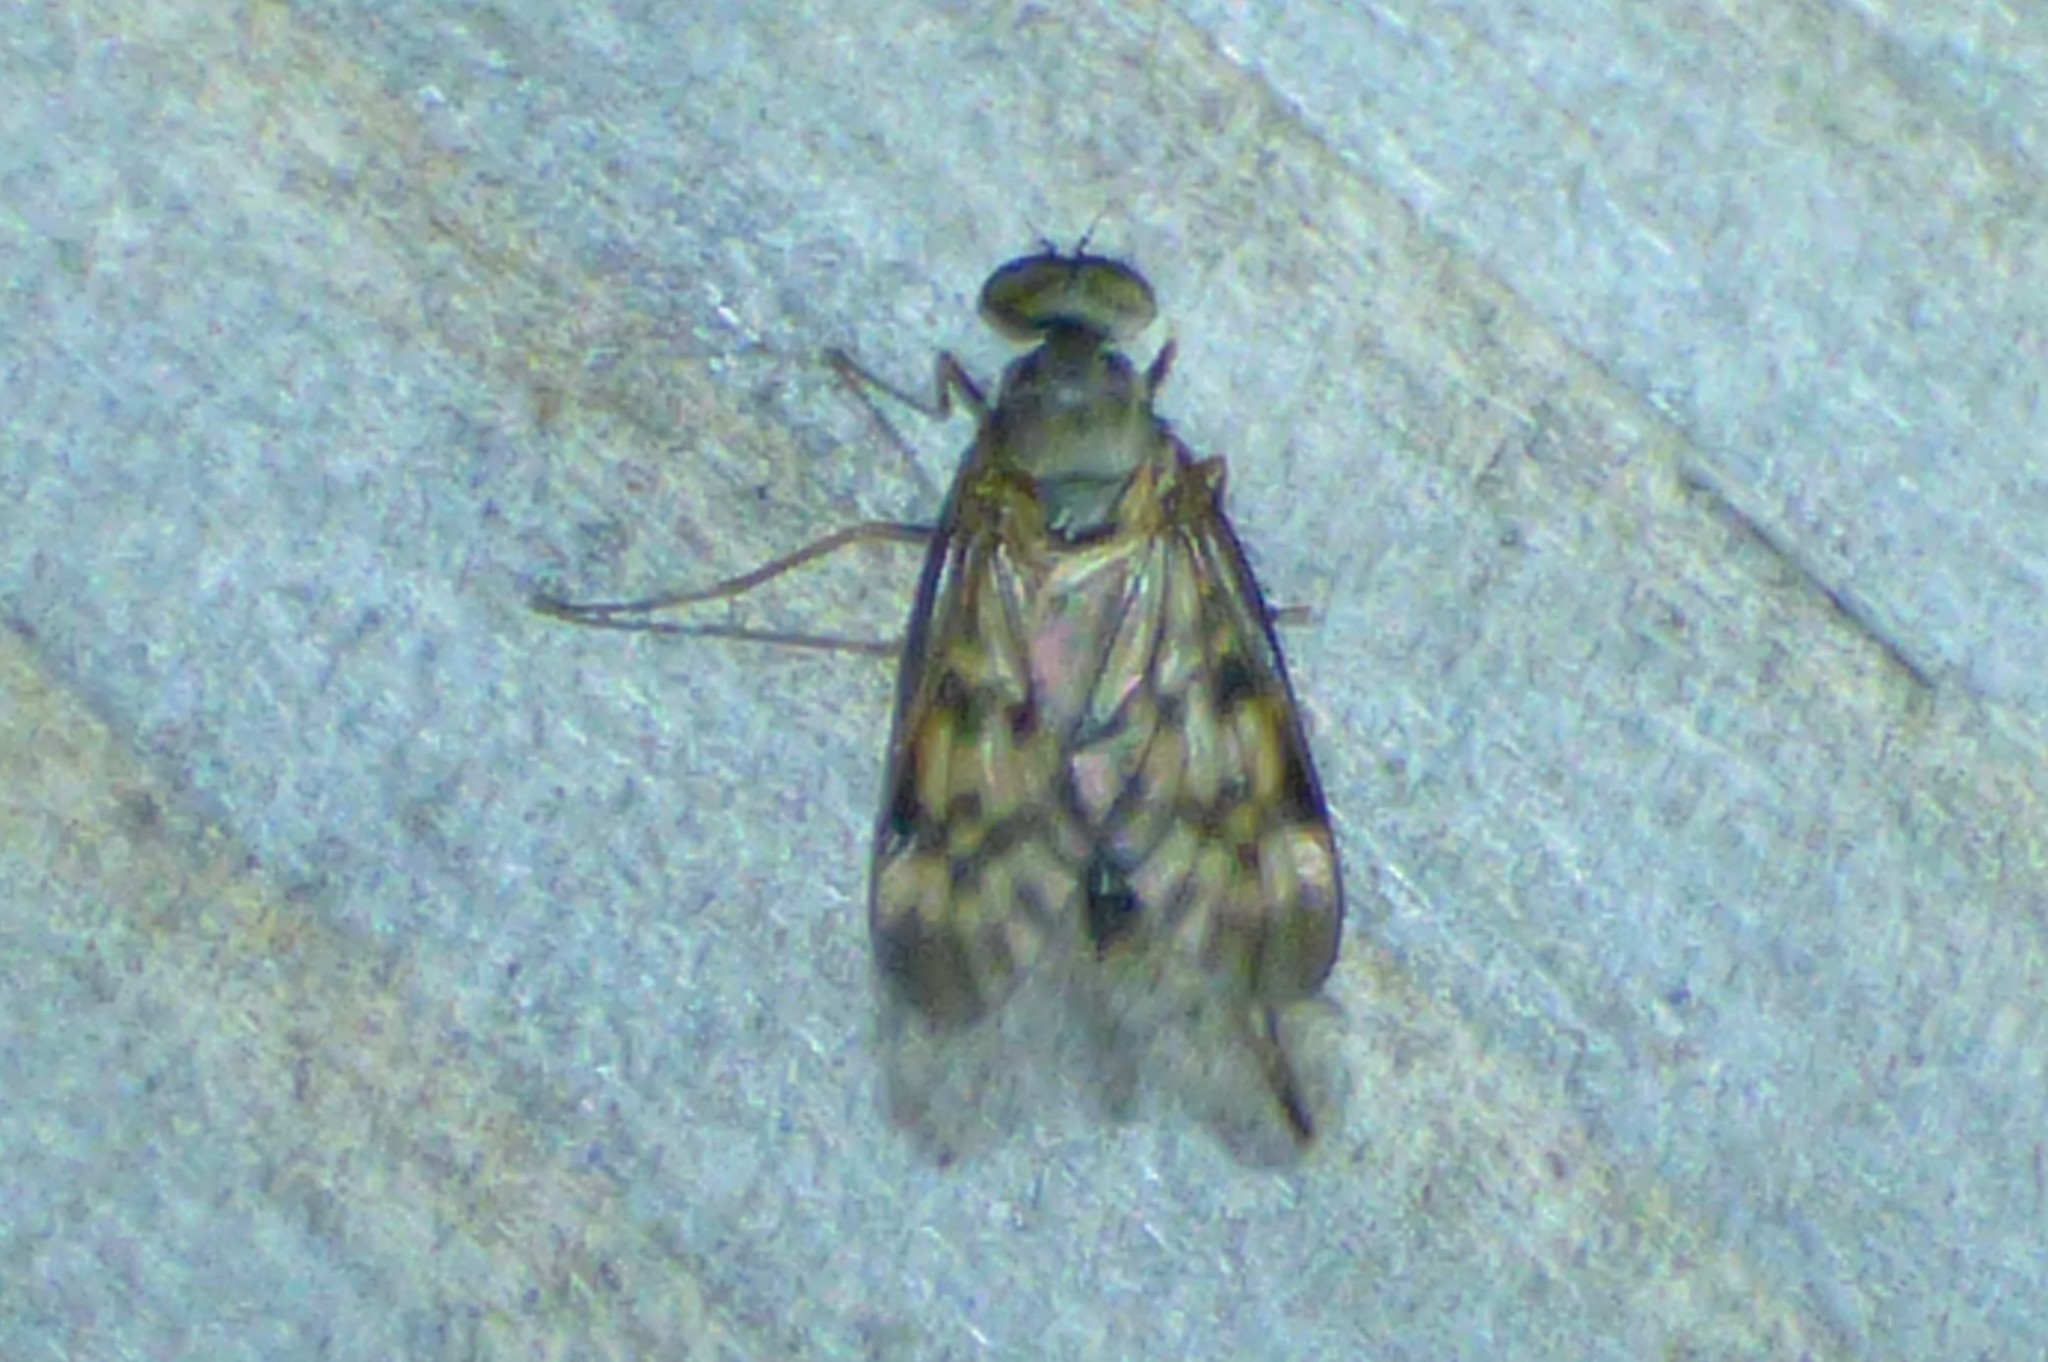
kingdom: Animalia
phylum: Arthropoda
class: Insecta
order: Diptera
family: Rhagionidae
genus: Rhagio
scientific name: Rhagio punctipennis
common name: Lesser variegated snipe fly
